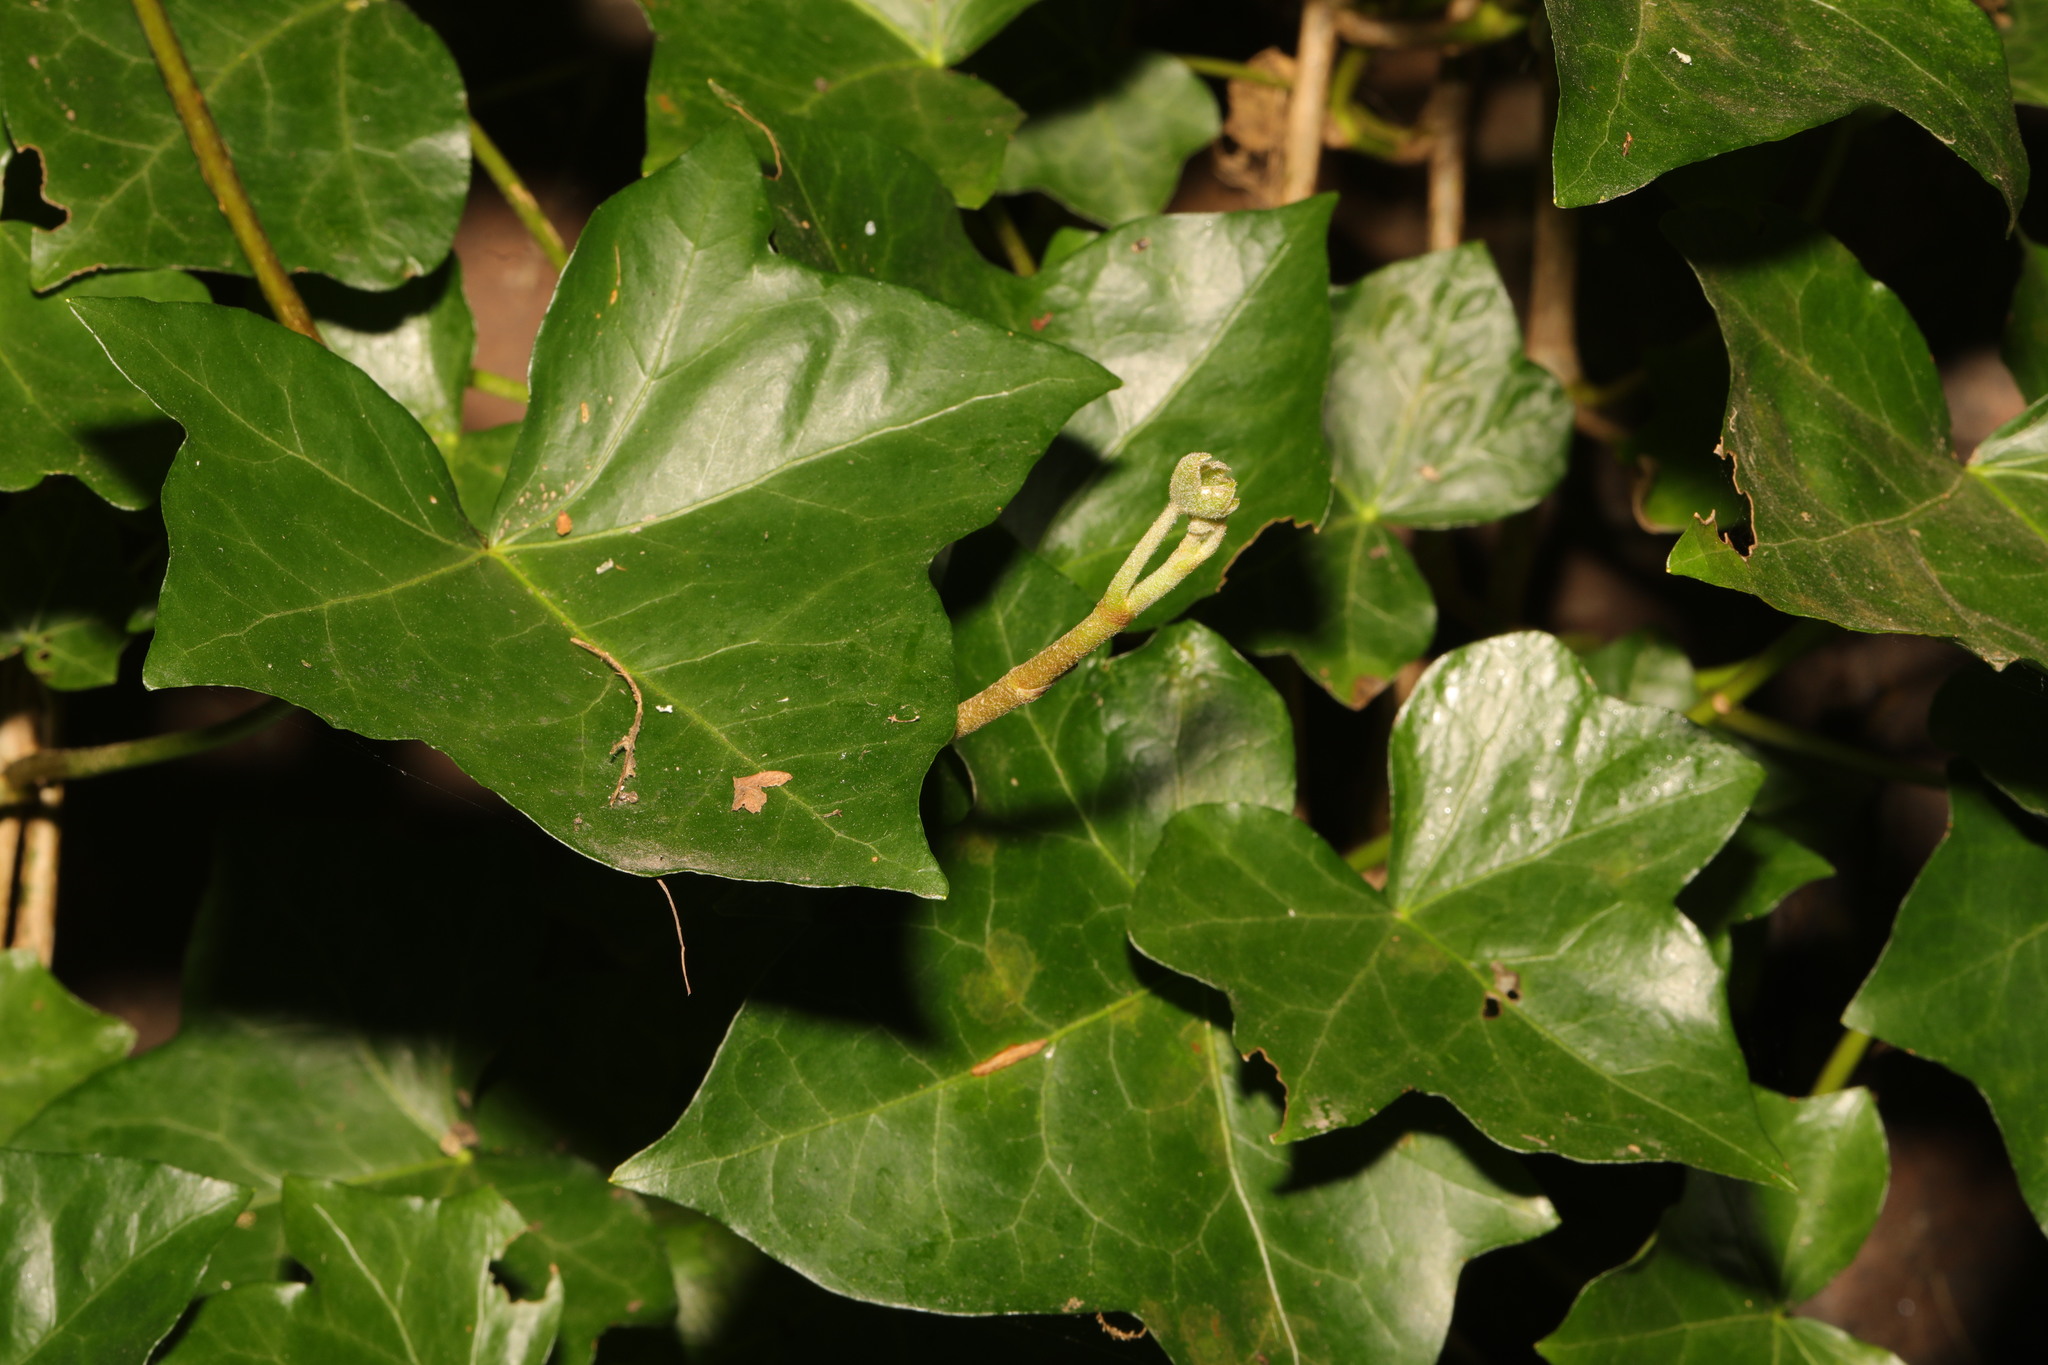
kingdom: Plantae
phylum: Tracheophyta
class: Magnoliopsida
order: Apiales
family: Araliaceae
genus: Hedera
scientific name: Hedera hibernica
